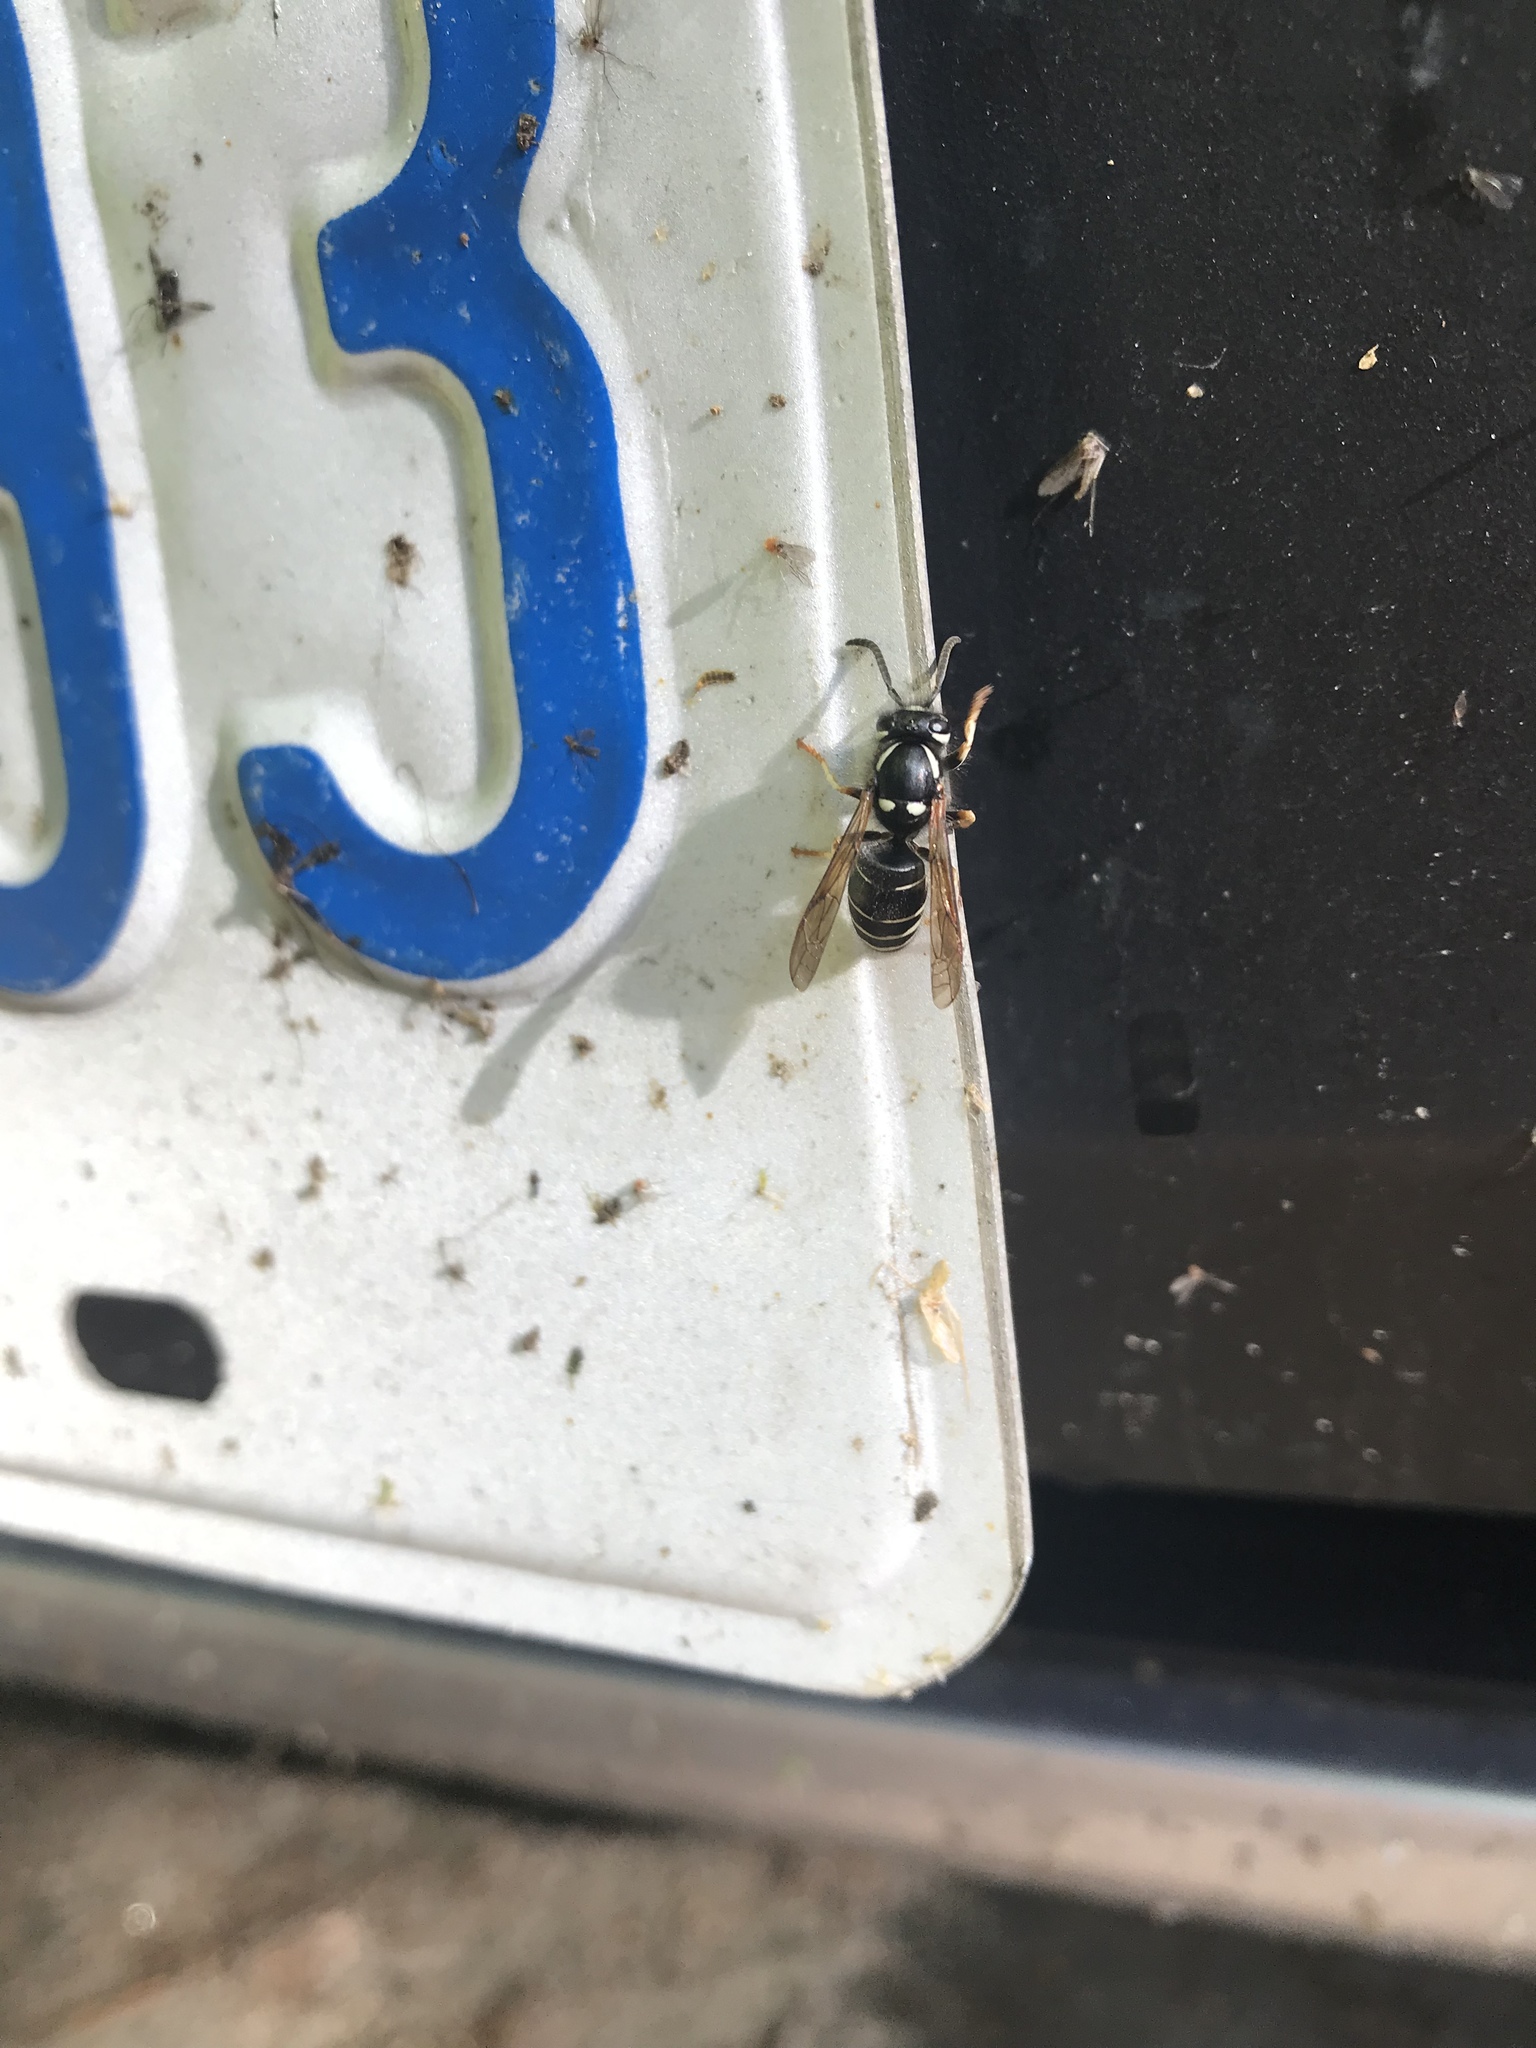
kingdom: Animalia
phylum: Arthropoda
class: Insecta
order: Hymenoptera
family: Vespidae
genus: Vespula
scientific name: Vespula consobrina
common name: Blackjacket
